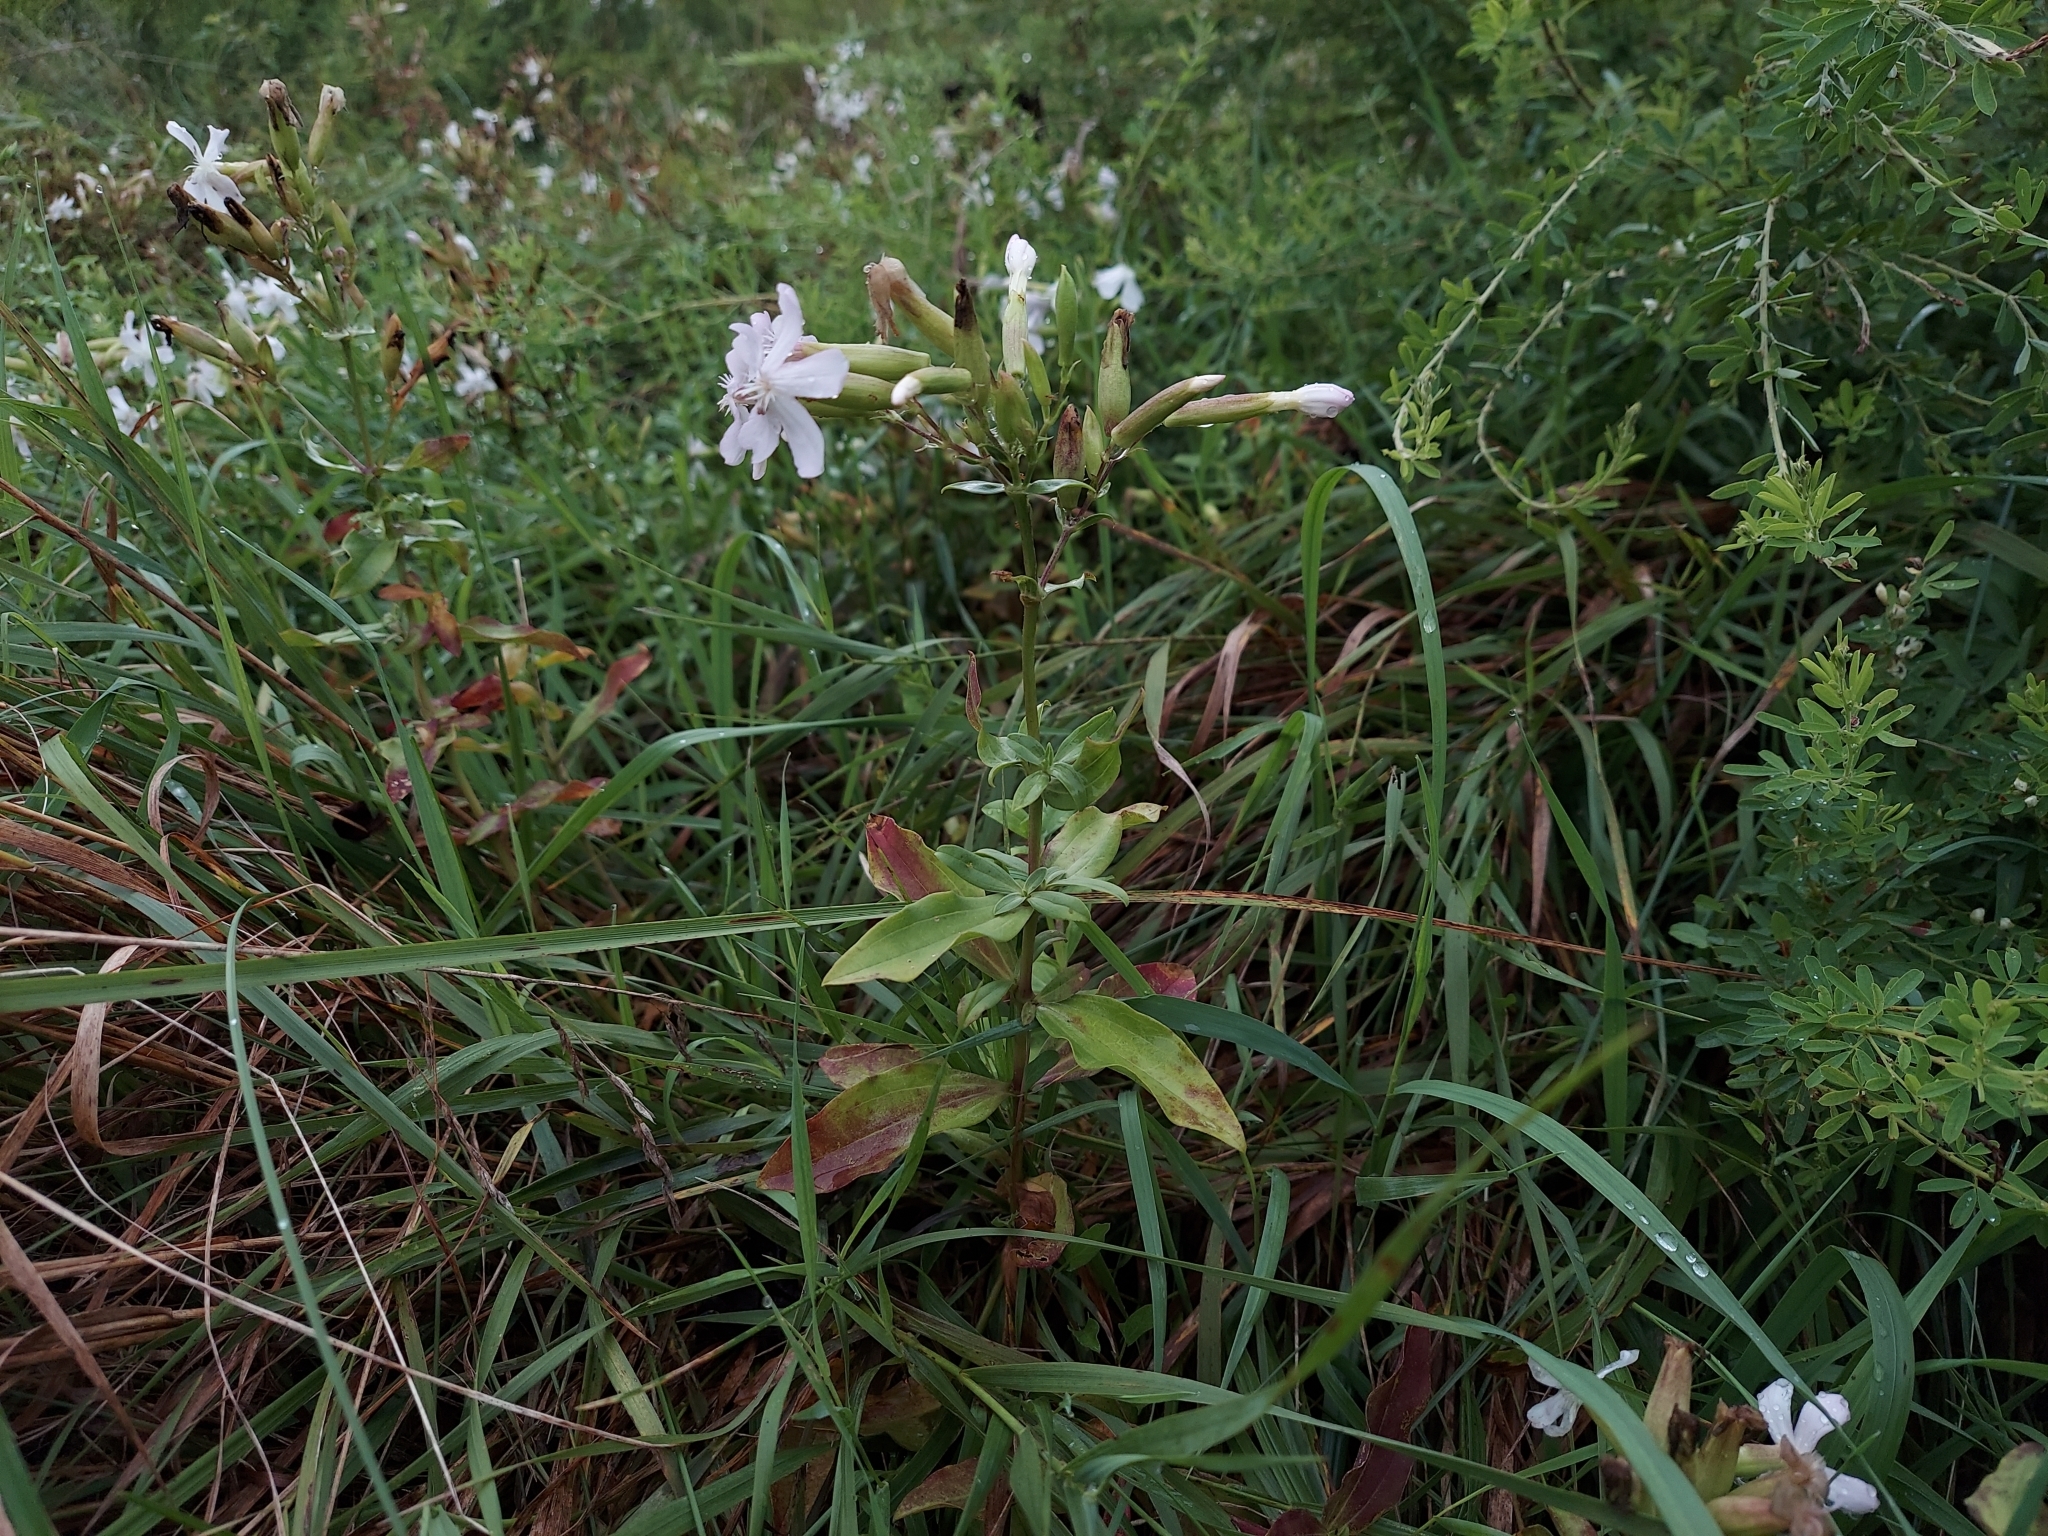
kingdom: Plantae
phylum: Tracheophyta
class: Magnoliopsida
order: Caryophyllales
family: Caryophyllaceae
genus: Saponaria
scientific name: Saponaria officinalis
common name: Soapwort
